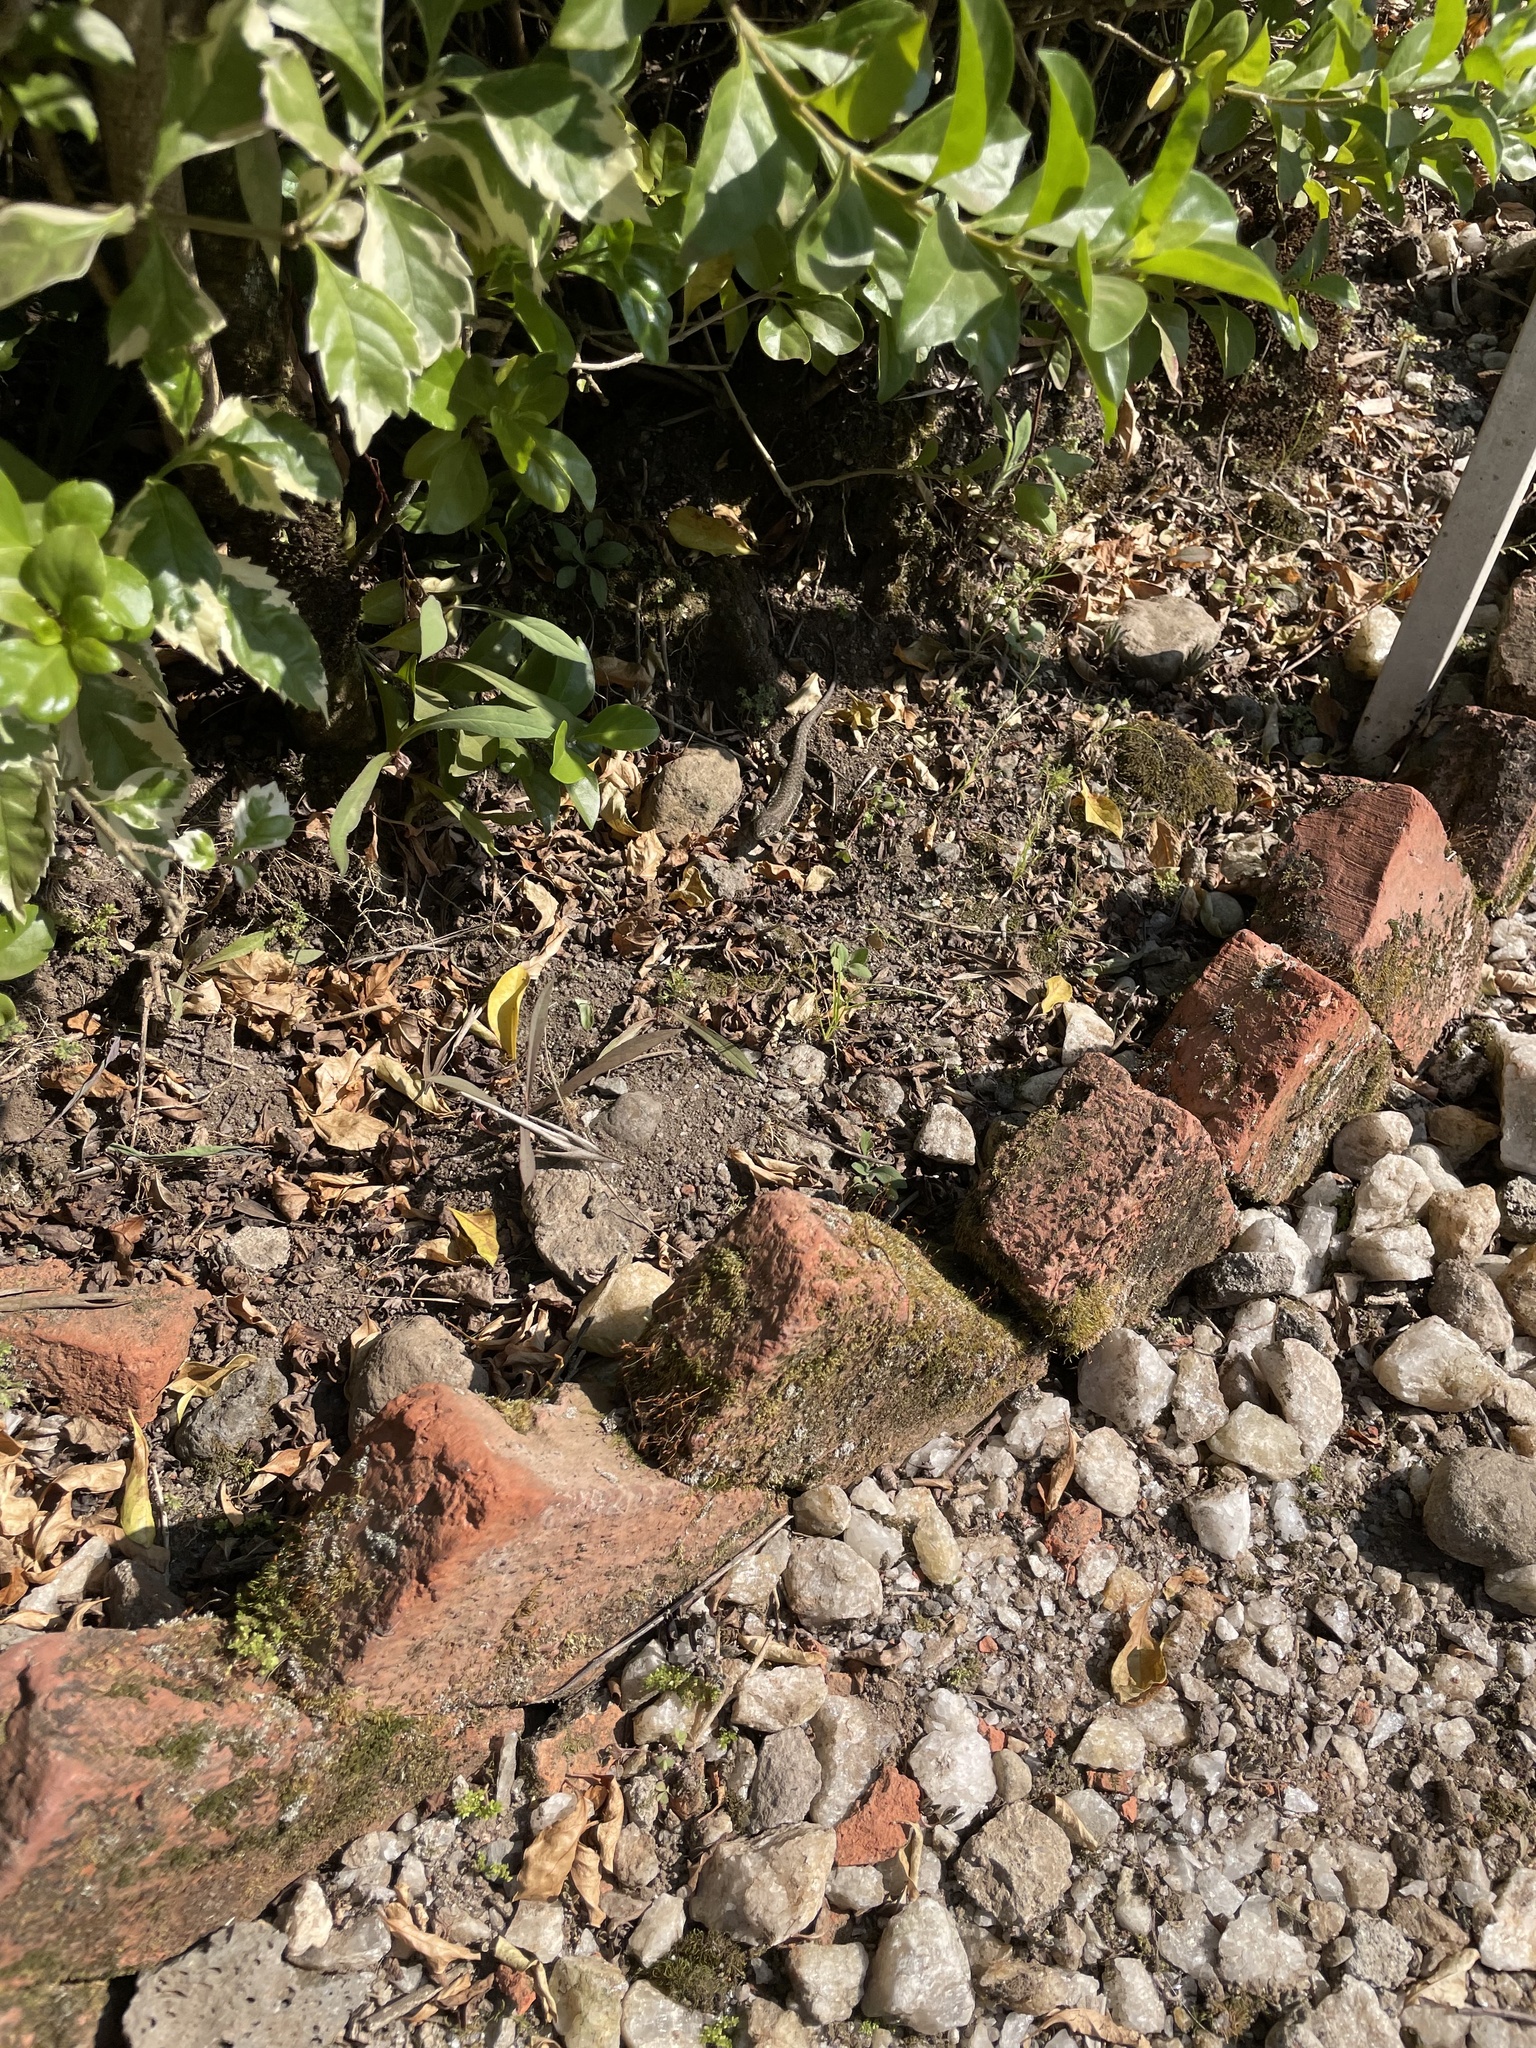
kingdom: Animalia
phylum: Chordata
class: Squamata
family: Lacertidae
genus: Adolfus
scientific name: Adolfus jacksoni
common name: Jackson’s forest lizard
